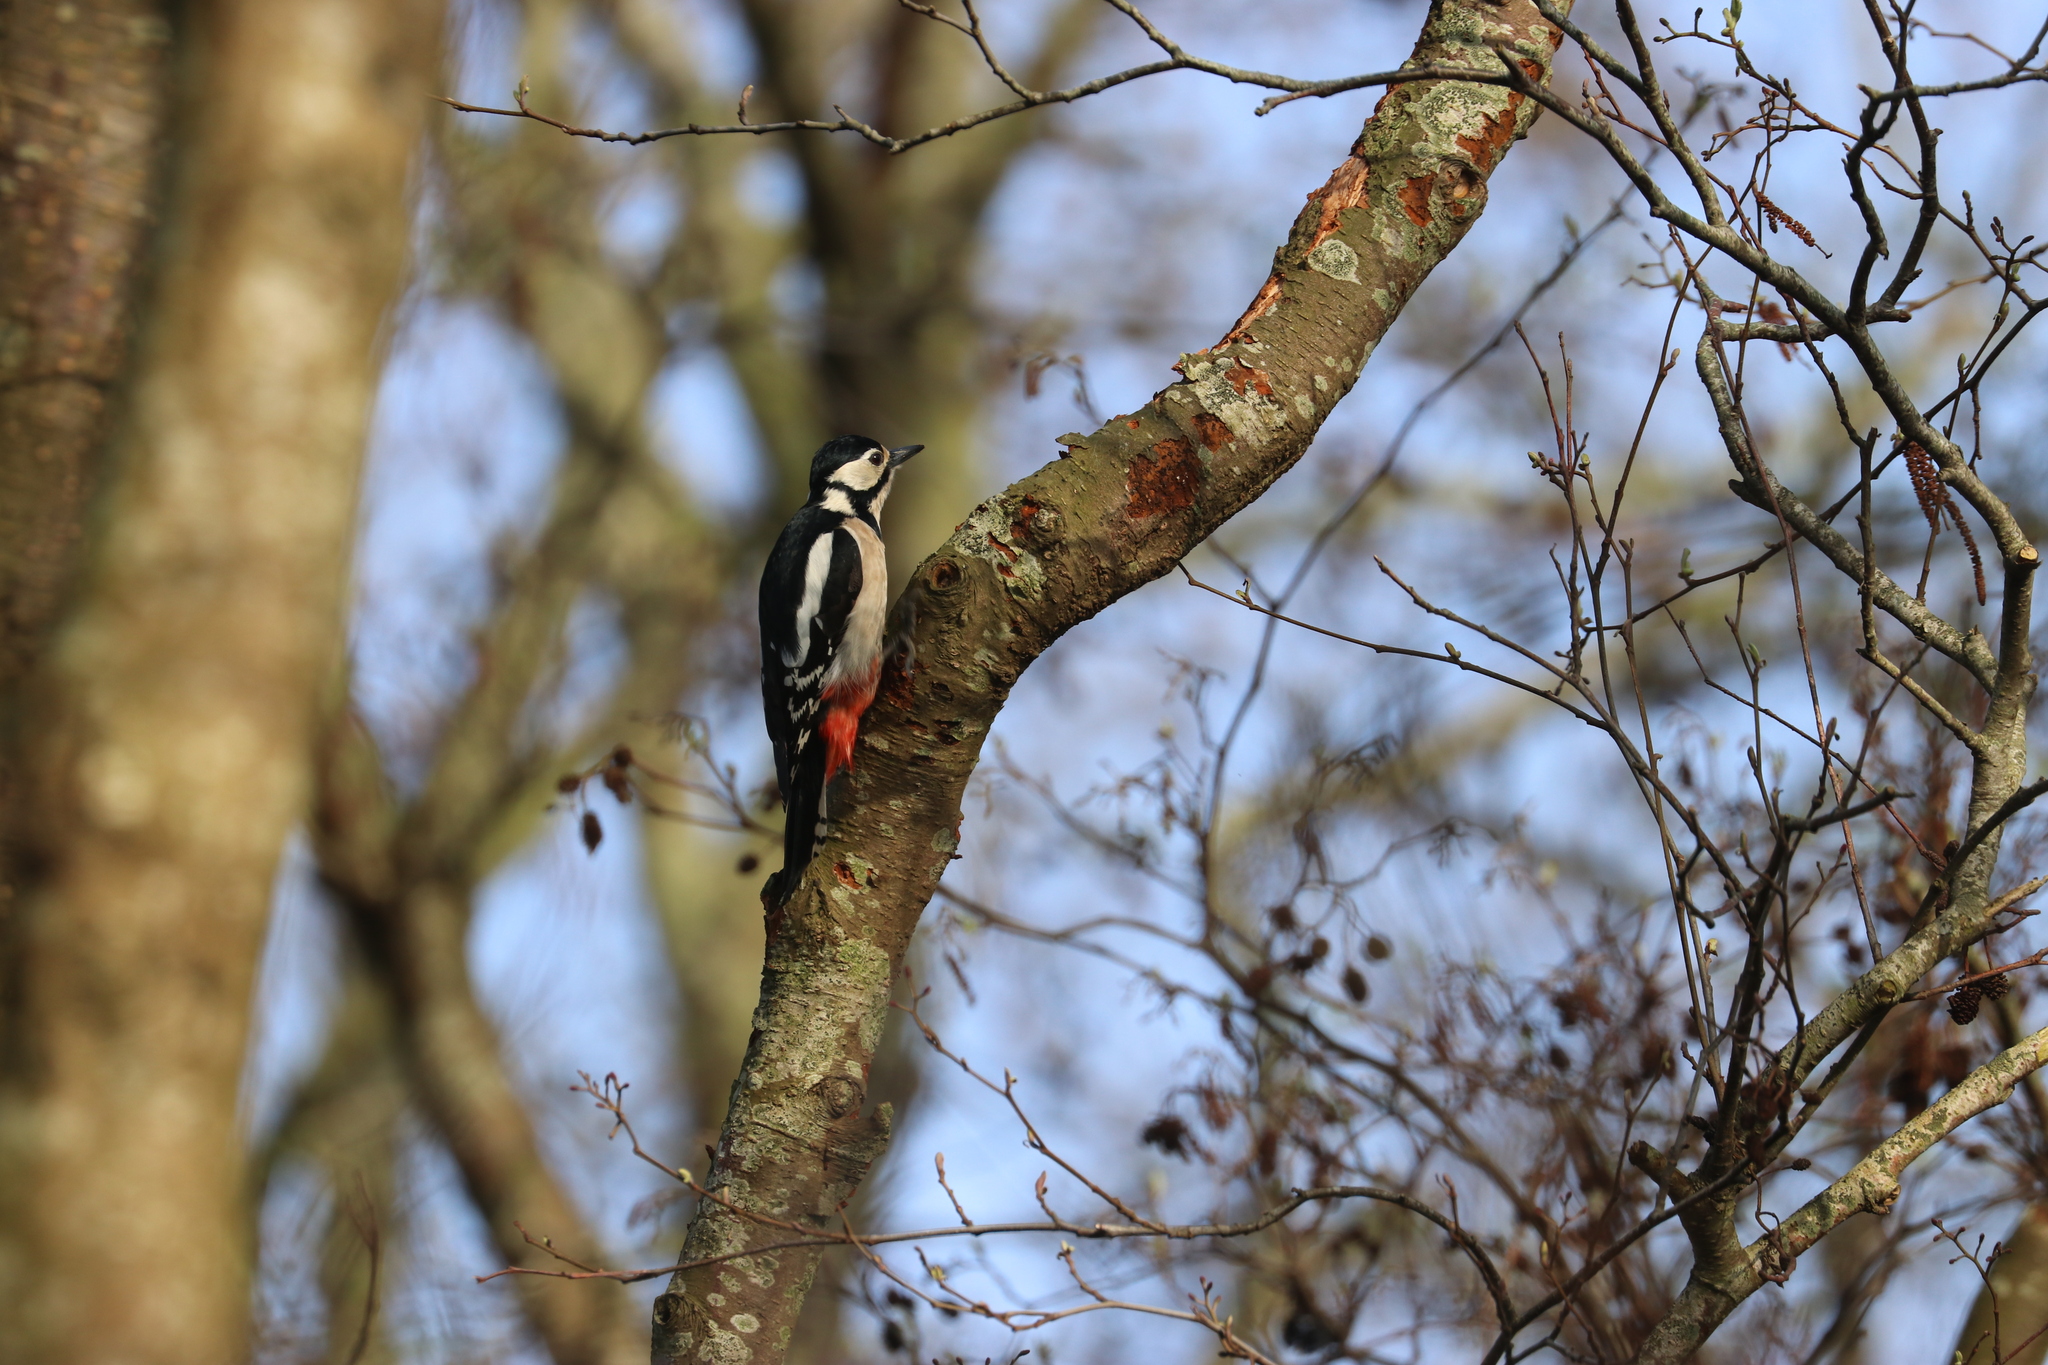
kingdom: Animalia
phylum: Chordata
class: Aves
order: Piciformes
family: Picidae
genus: Dendrocopos
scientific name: Dendrocopos major
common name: Great spotted woodpecker
